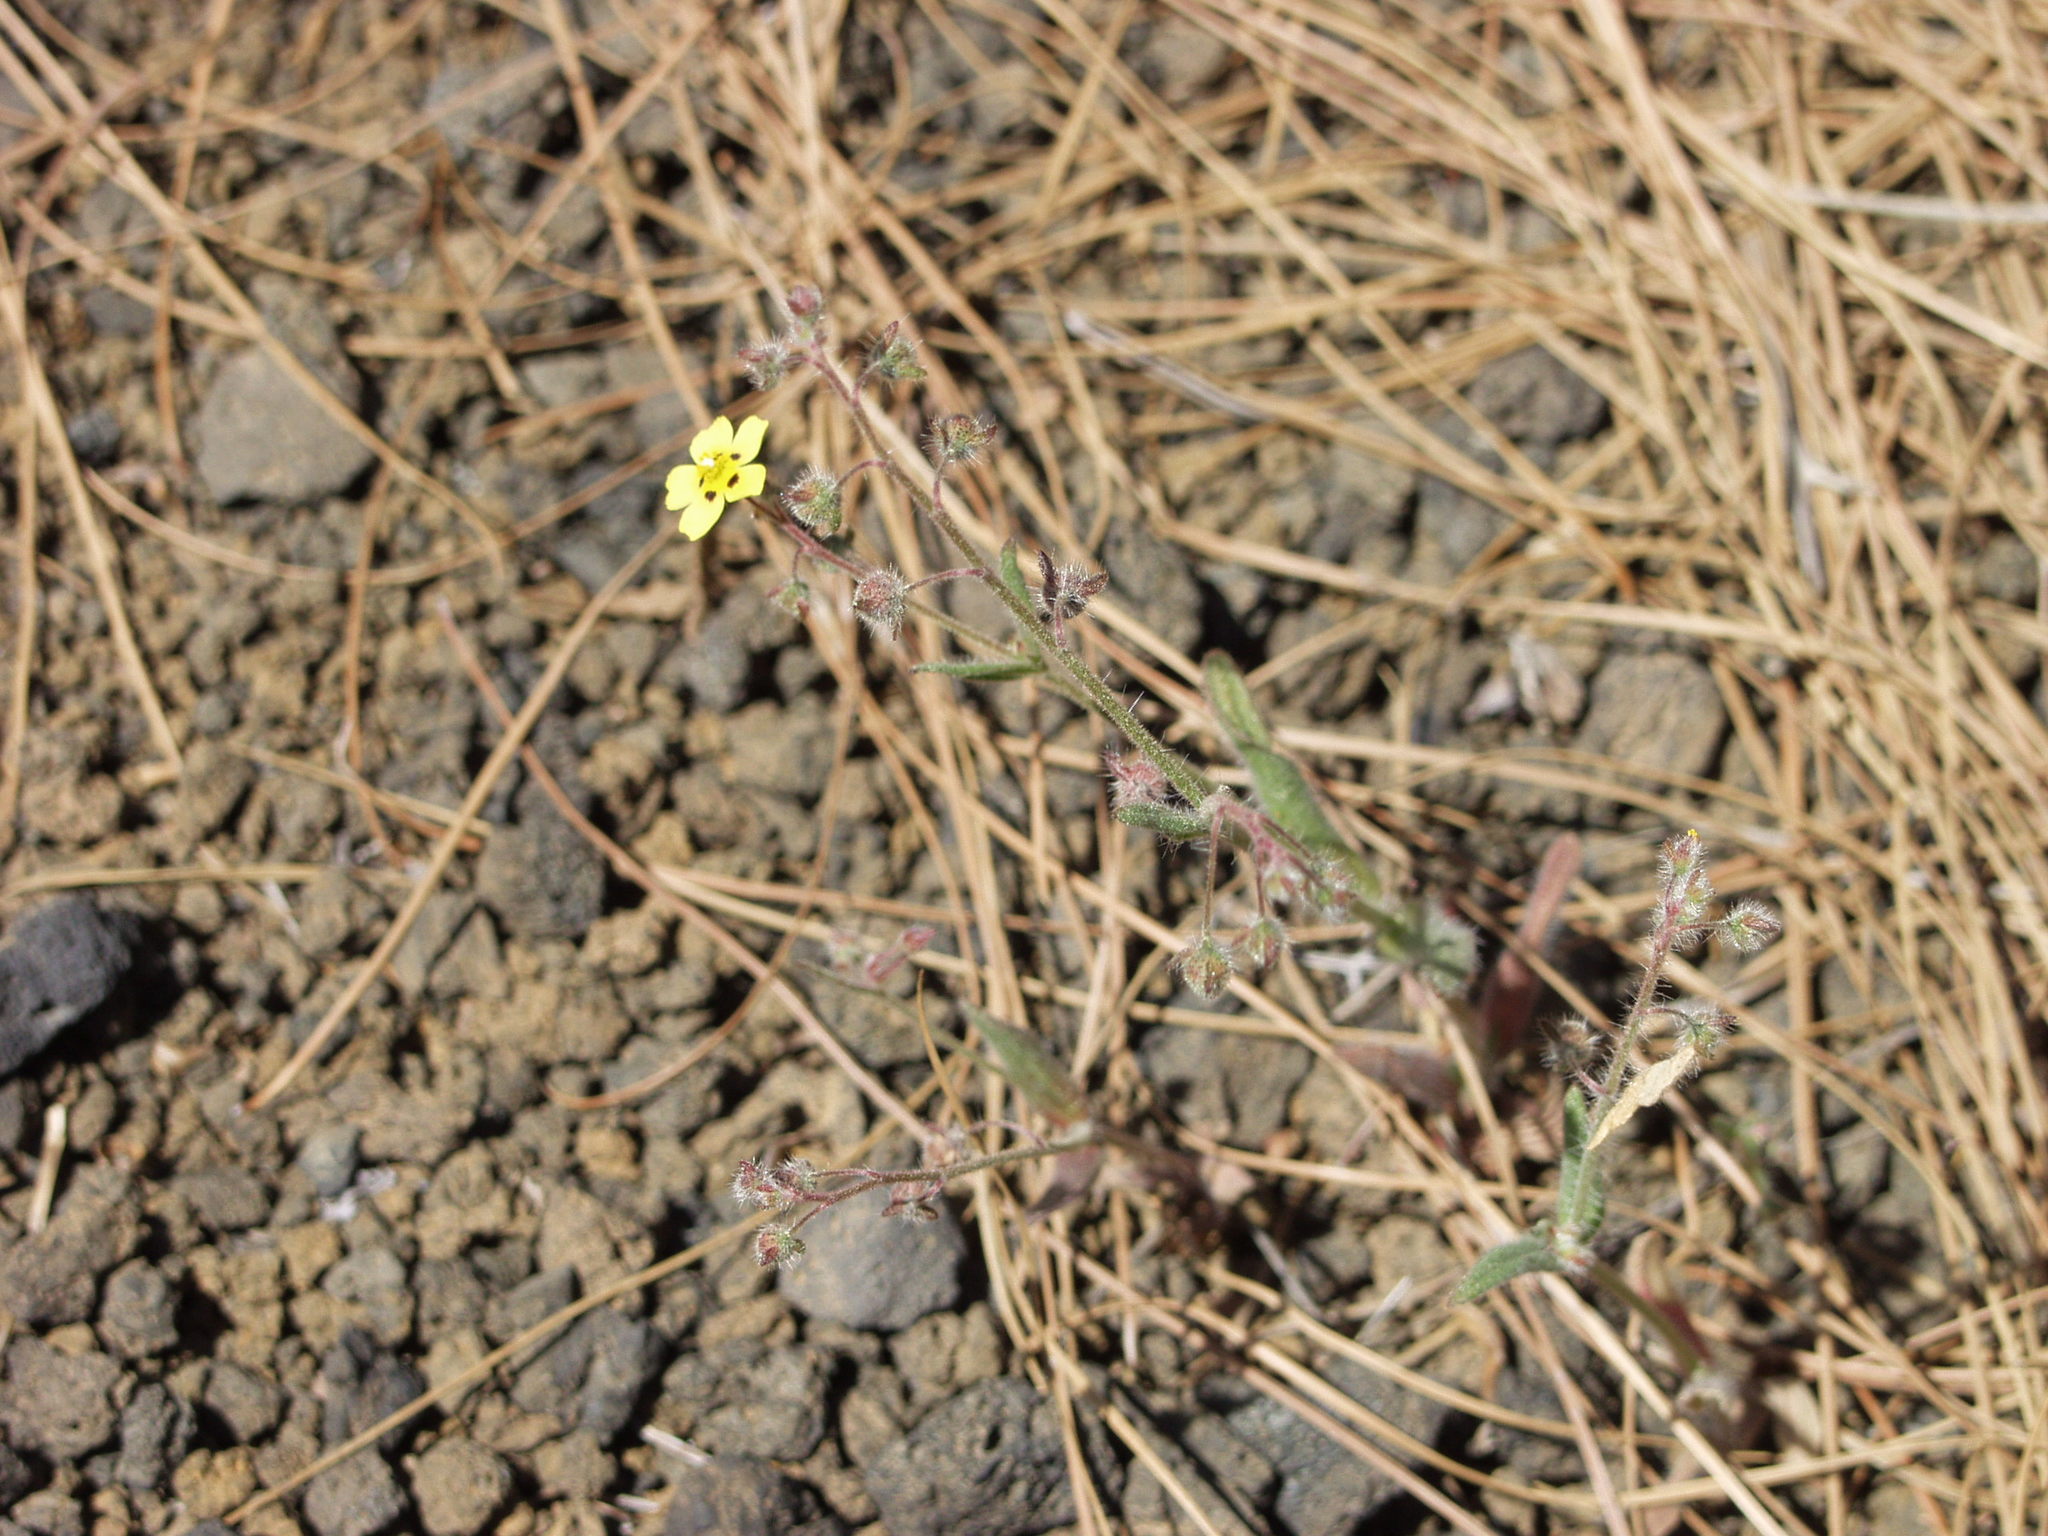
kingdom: Plantae
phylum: Tracheophyta
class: Magnoliopsida
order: Malvales
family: Cistaceae
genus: Tuberaria
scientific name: Tuberaria guttata
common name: Spotted rock-rose
